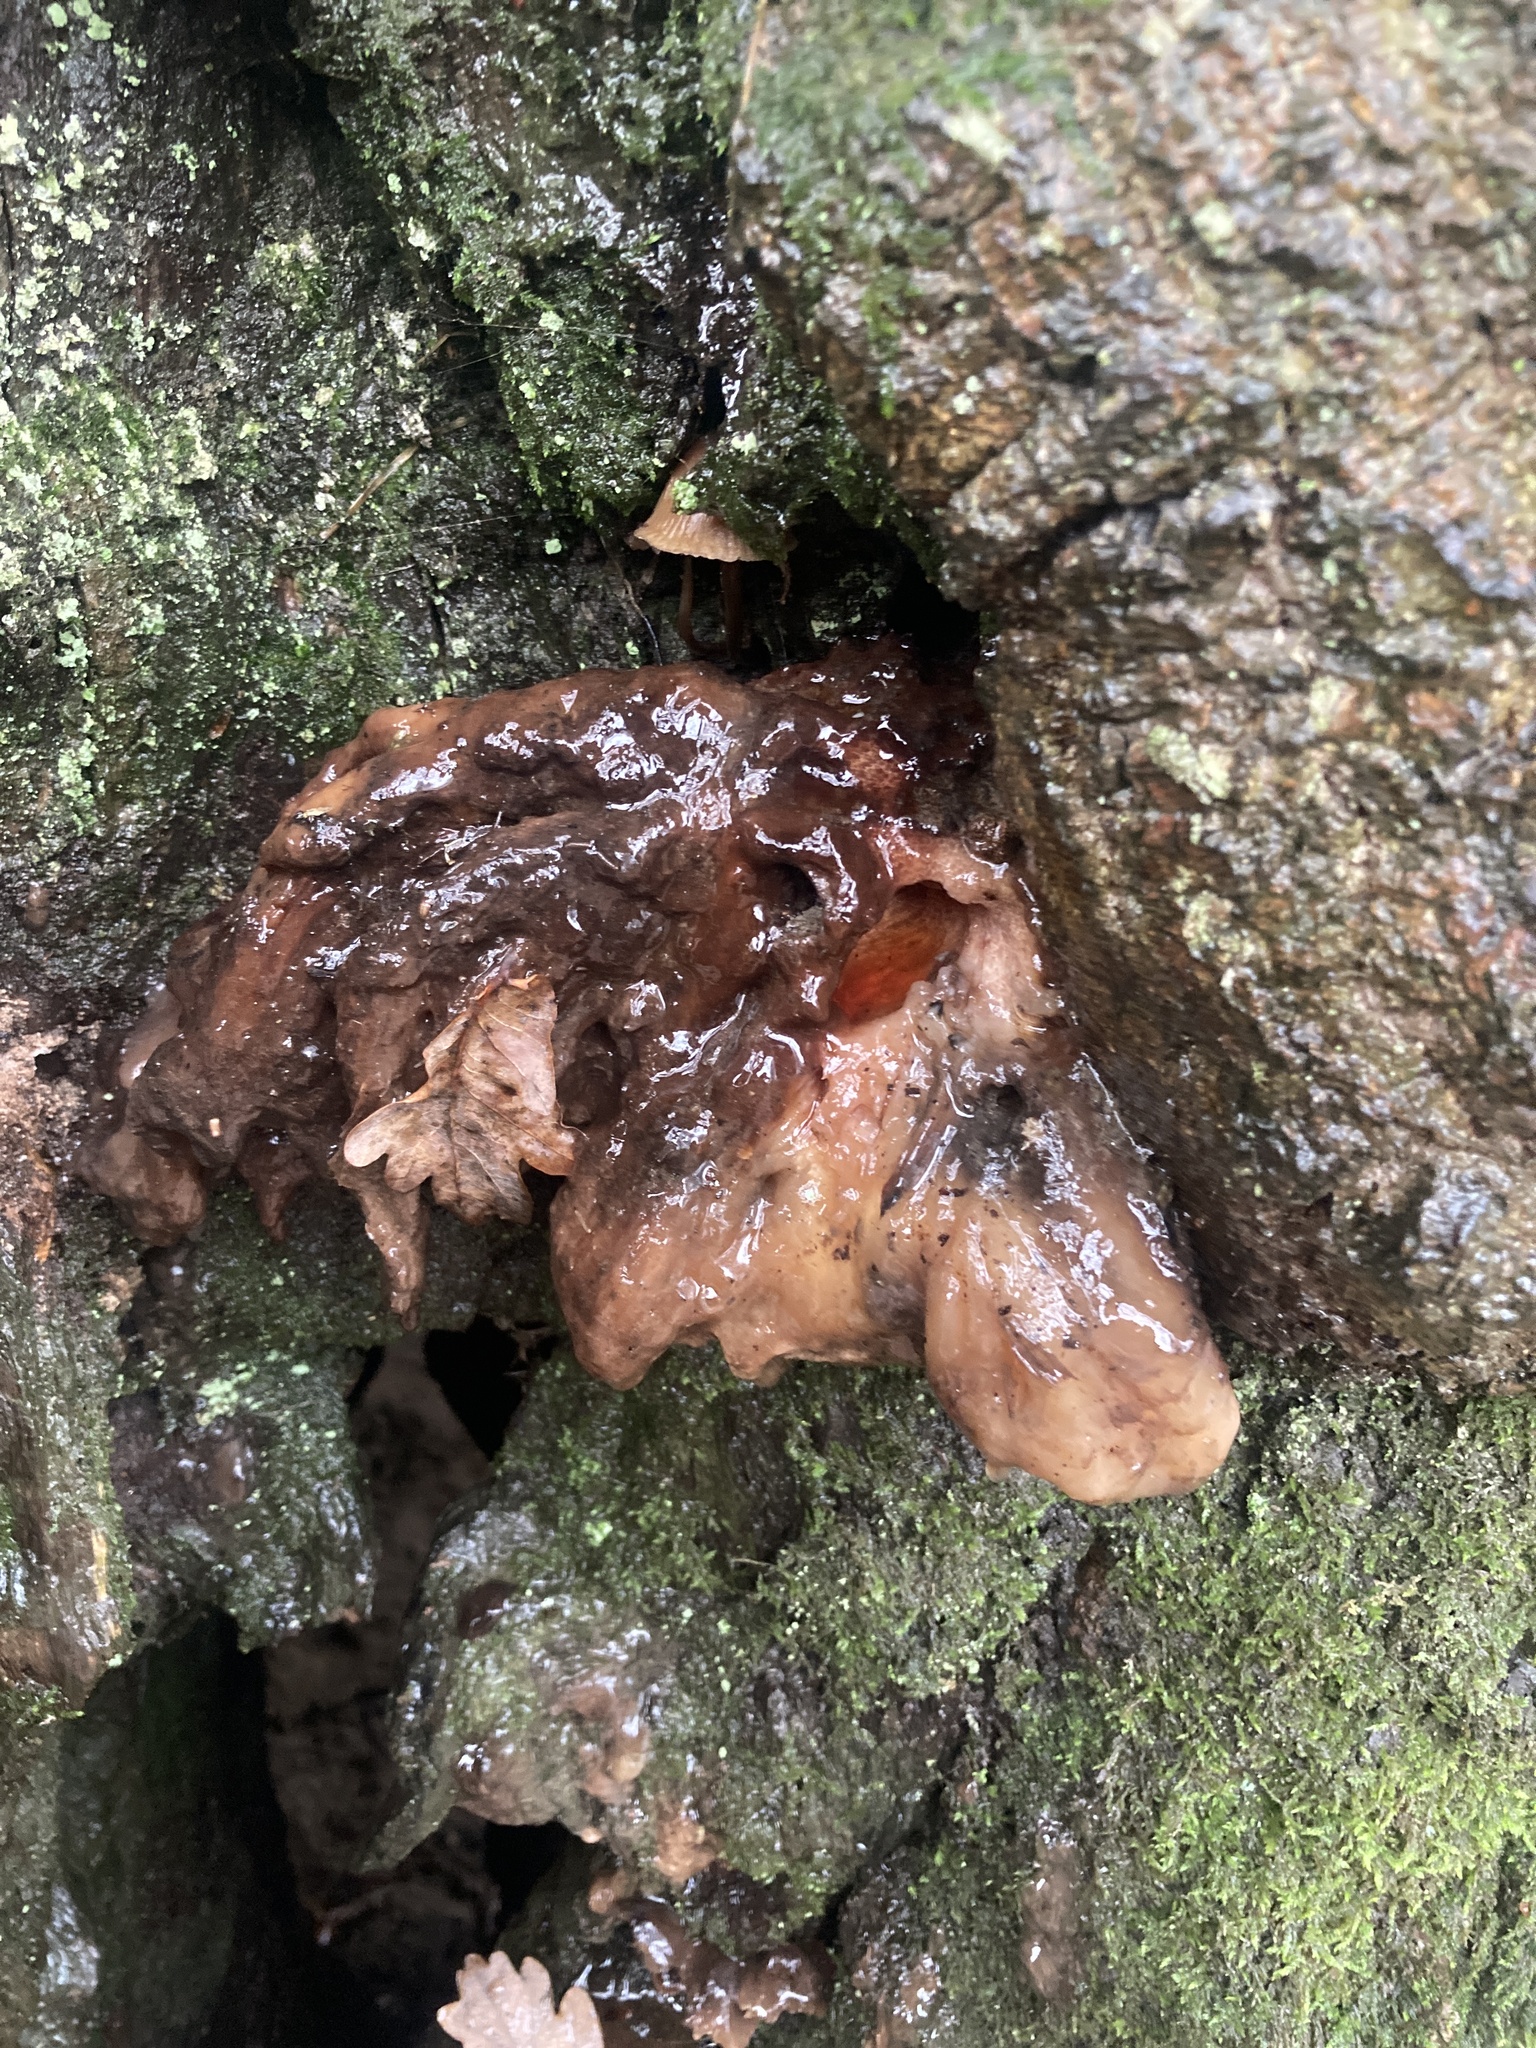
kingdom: Fungi
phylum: Basidiomycota
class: Agaricomycetes
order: Agaricales
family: Fistulinaceae
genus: Fistulina
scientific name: Fistulina hepatica
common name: Beef-steak fungus
